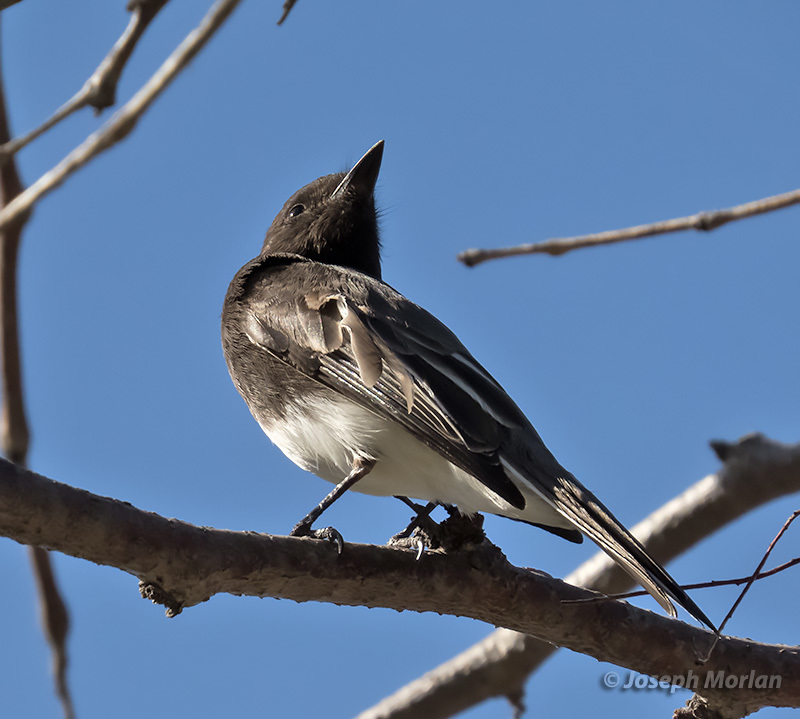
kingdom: Animalia
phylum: Chordata
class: Aves
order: Passeriformes
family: Tyrannidae
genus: Sayornis
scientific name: Sayornis nigricans
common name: Black phoebe
